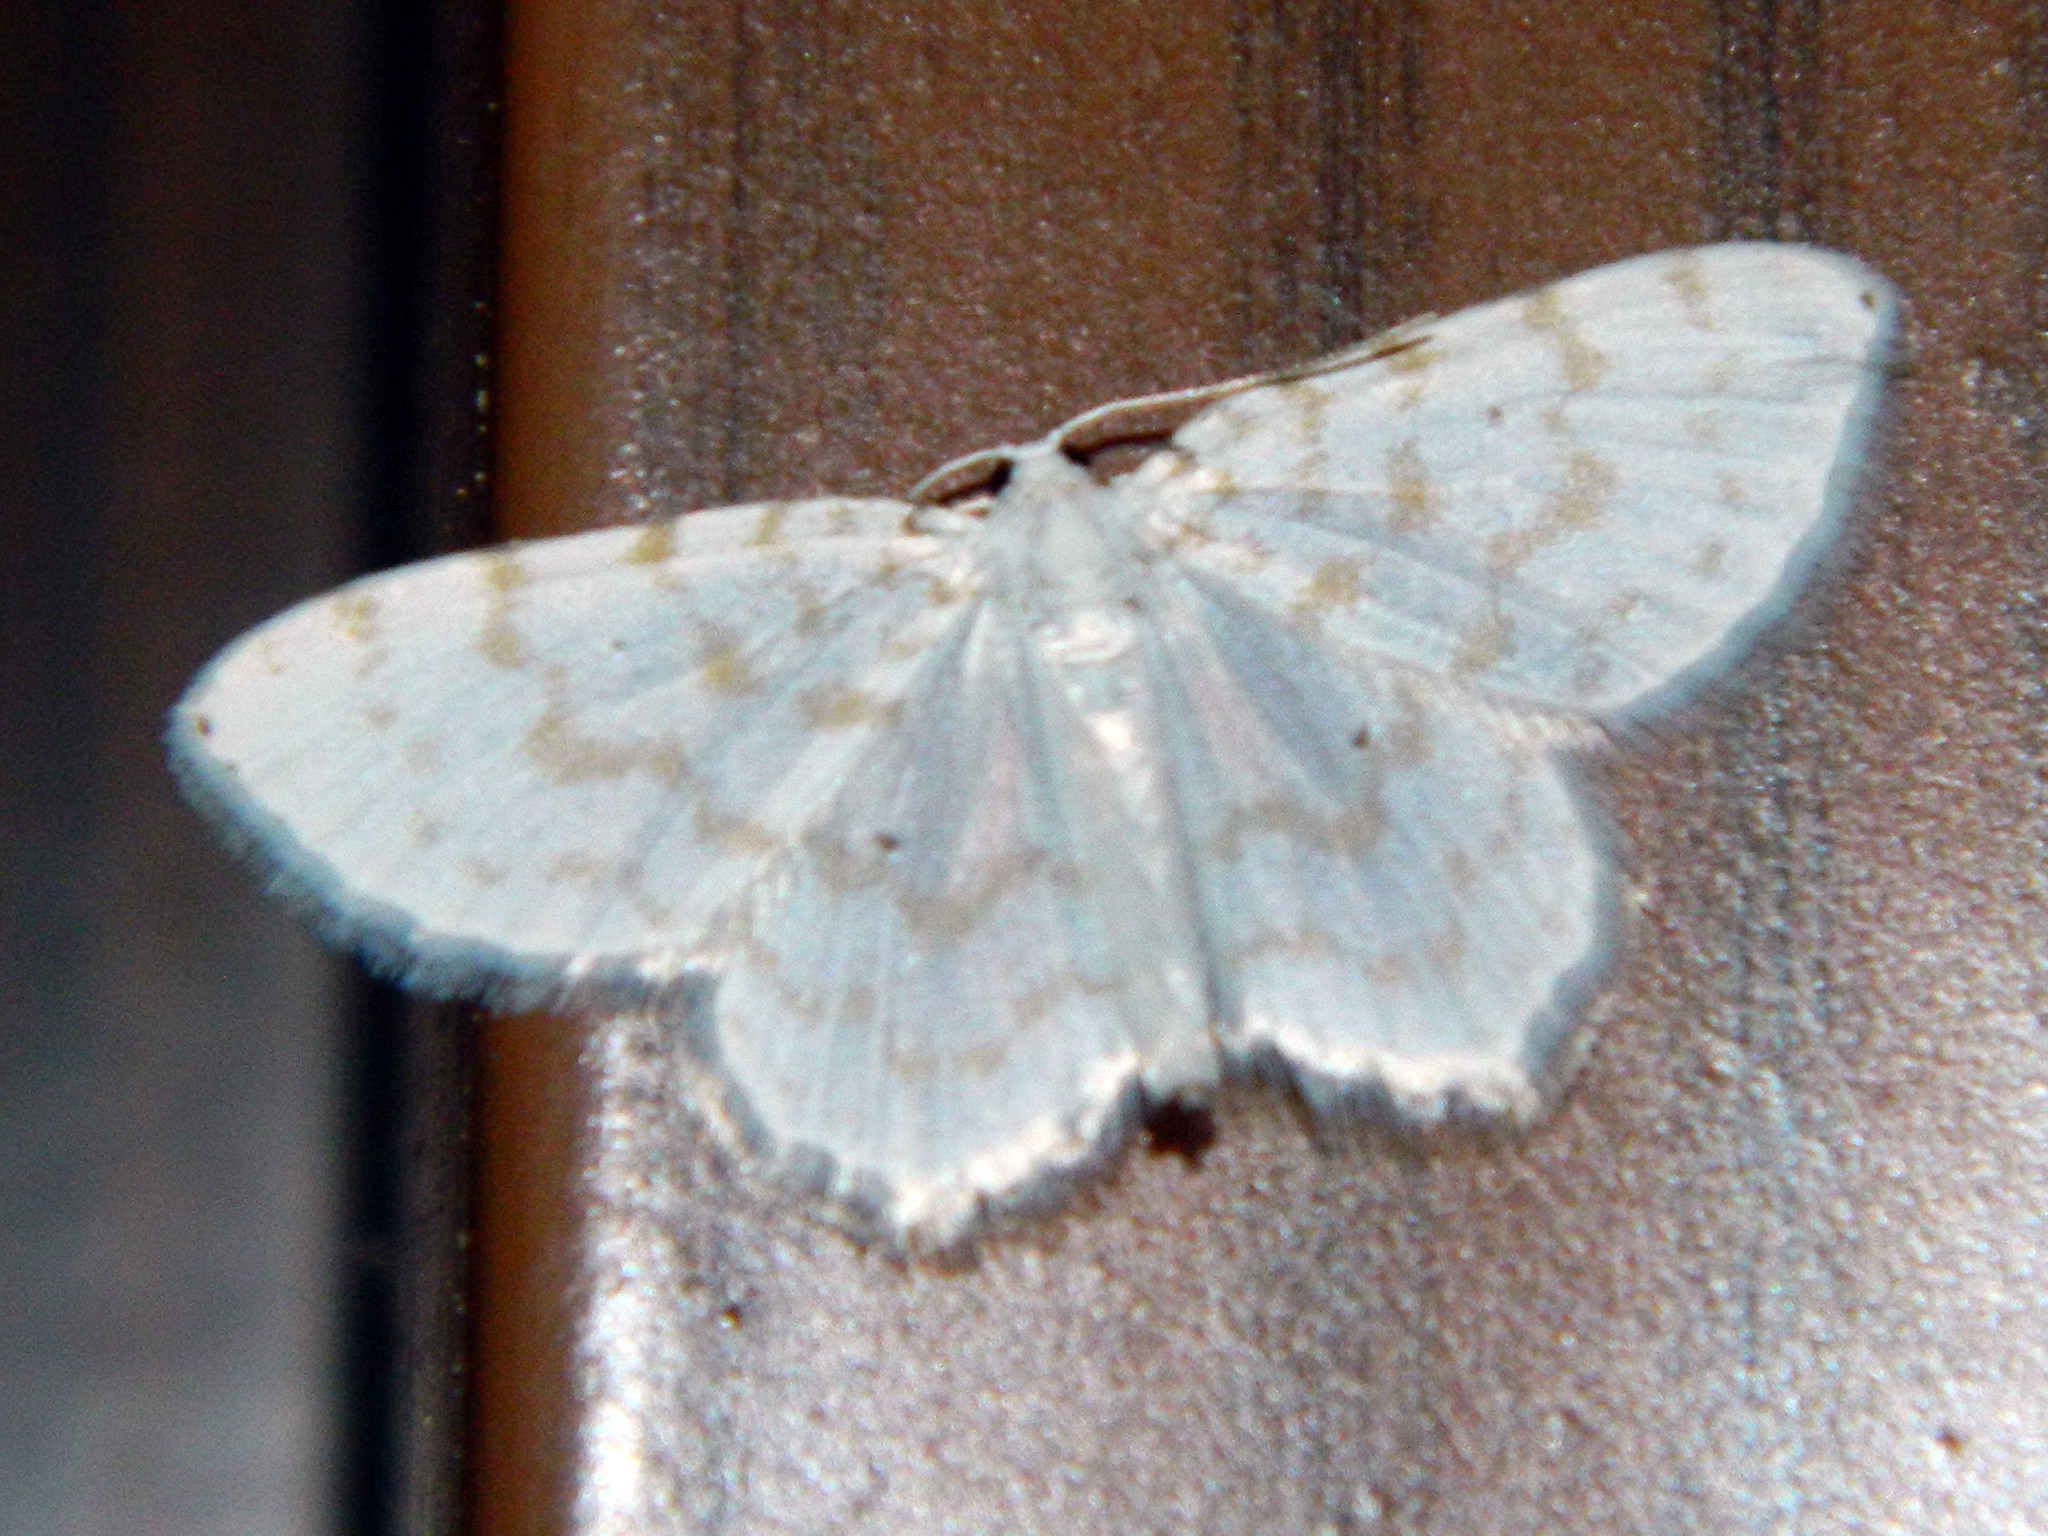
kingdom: Animalia
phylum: Arthropoda
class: Insecta
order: Lepidoptera
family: Geometridae
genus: Hydrelia
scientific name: Hydrelia albifera
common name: Fragile white carpet
